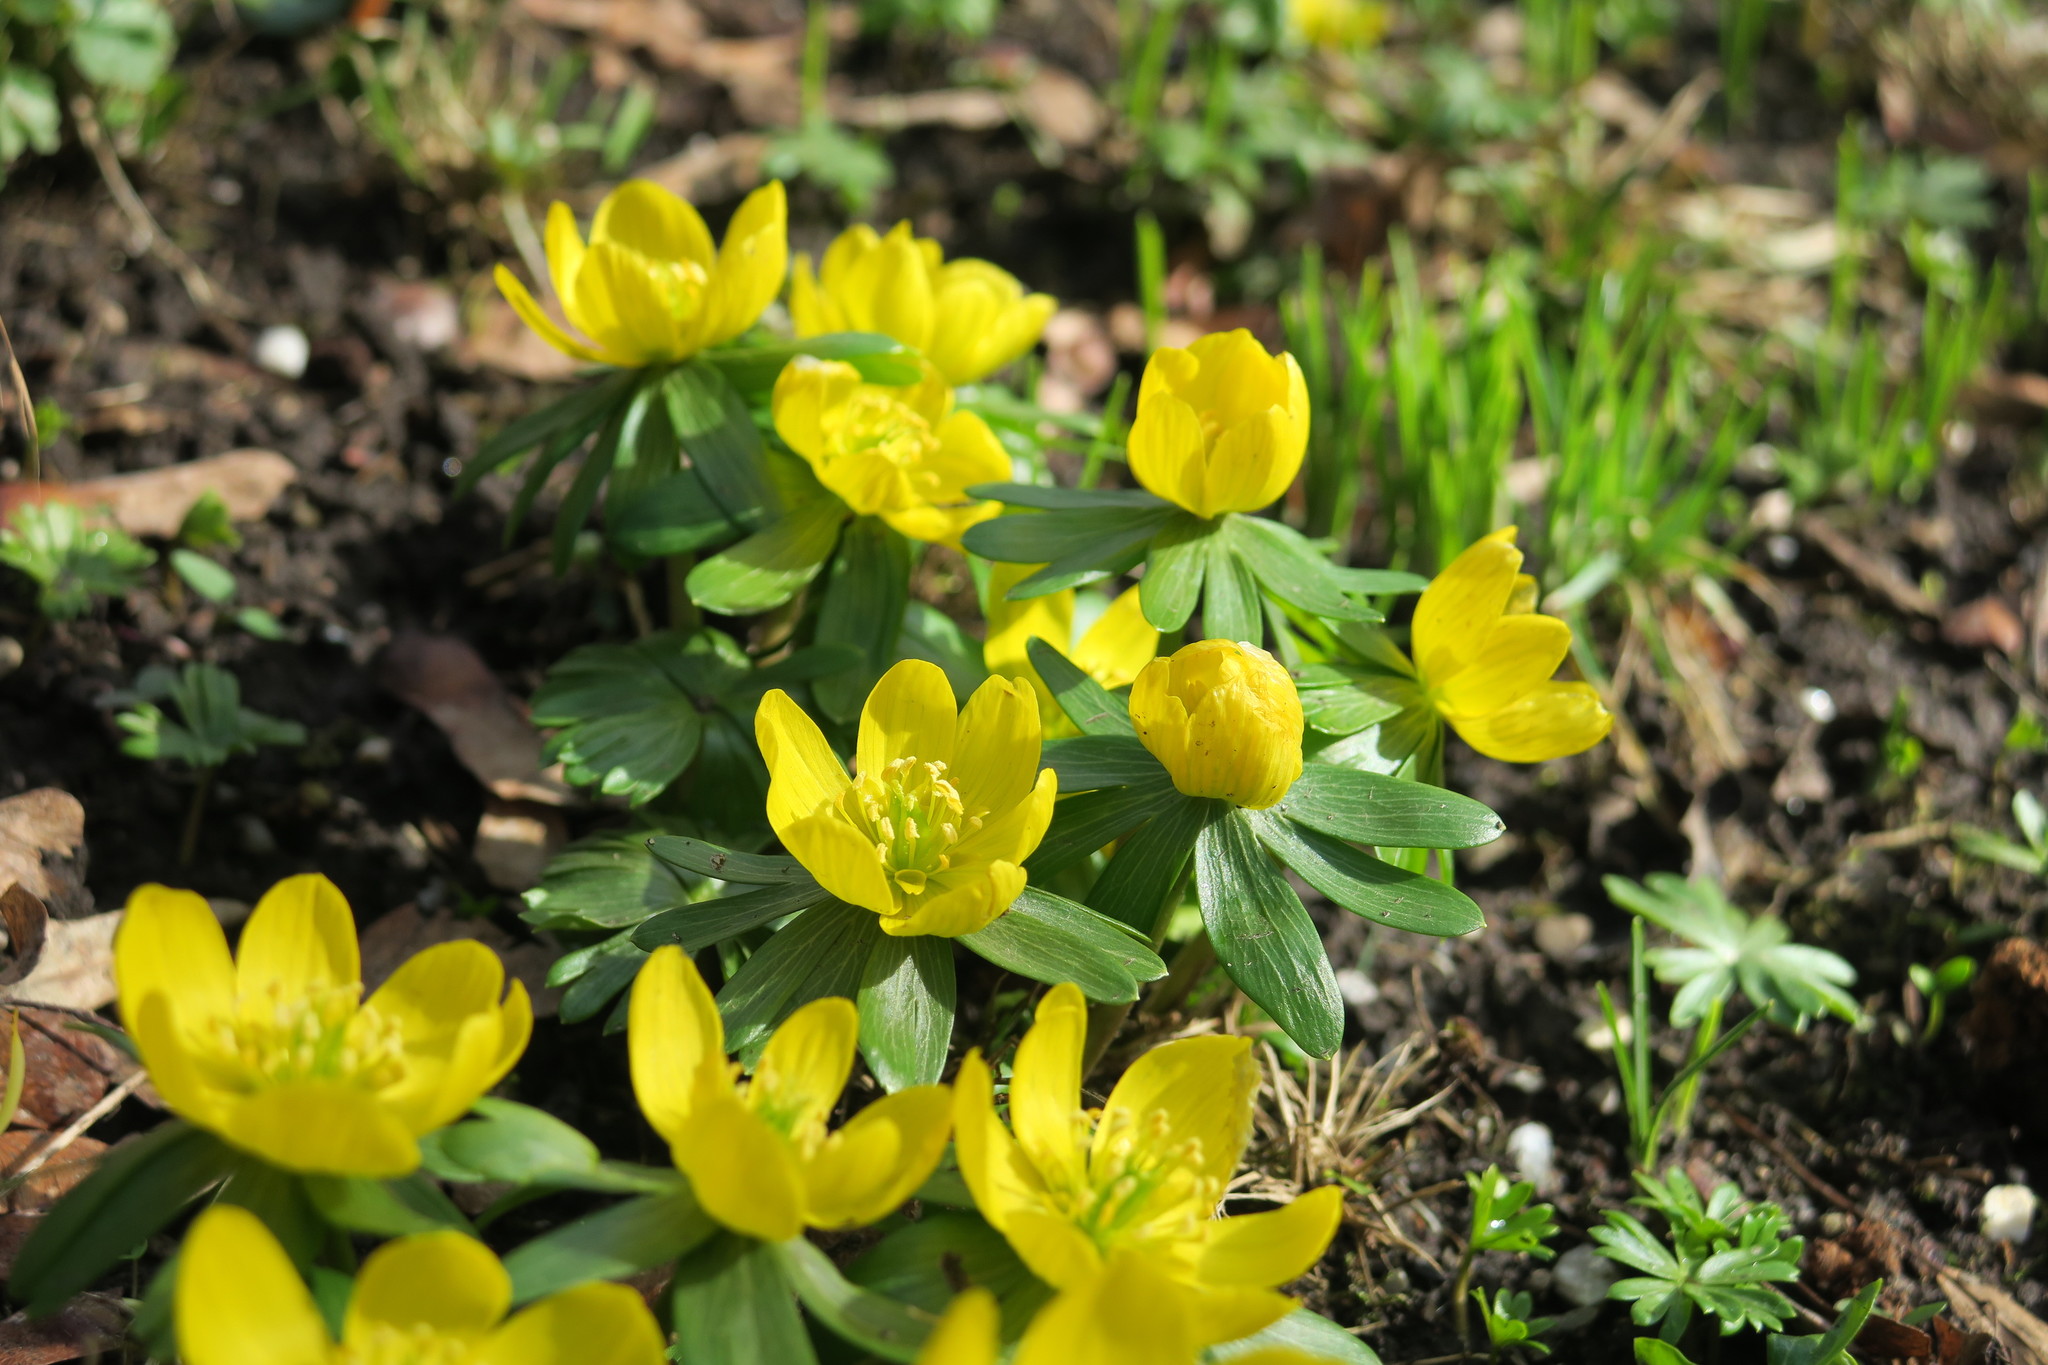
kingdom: Plantae
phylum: Tracheophyta
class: Magnoliopsida
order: Ranunculales
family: Ranunculaceae
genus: Eranthis
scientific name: Eranthis hyemalis
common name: Winter aconite
